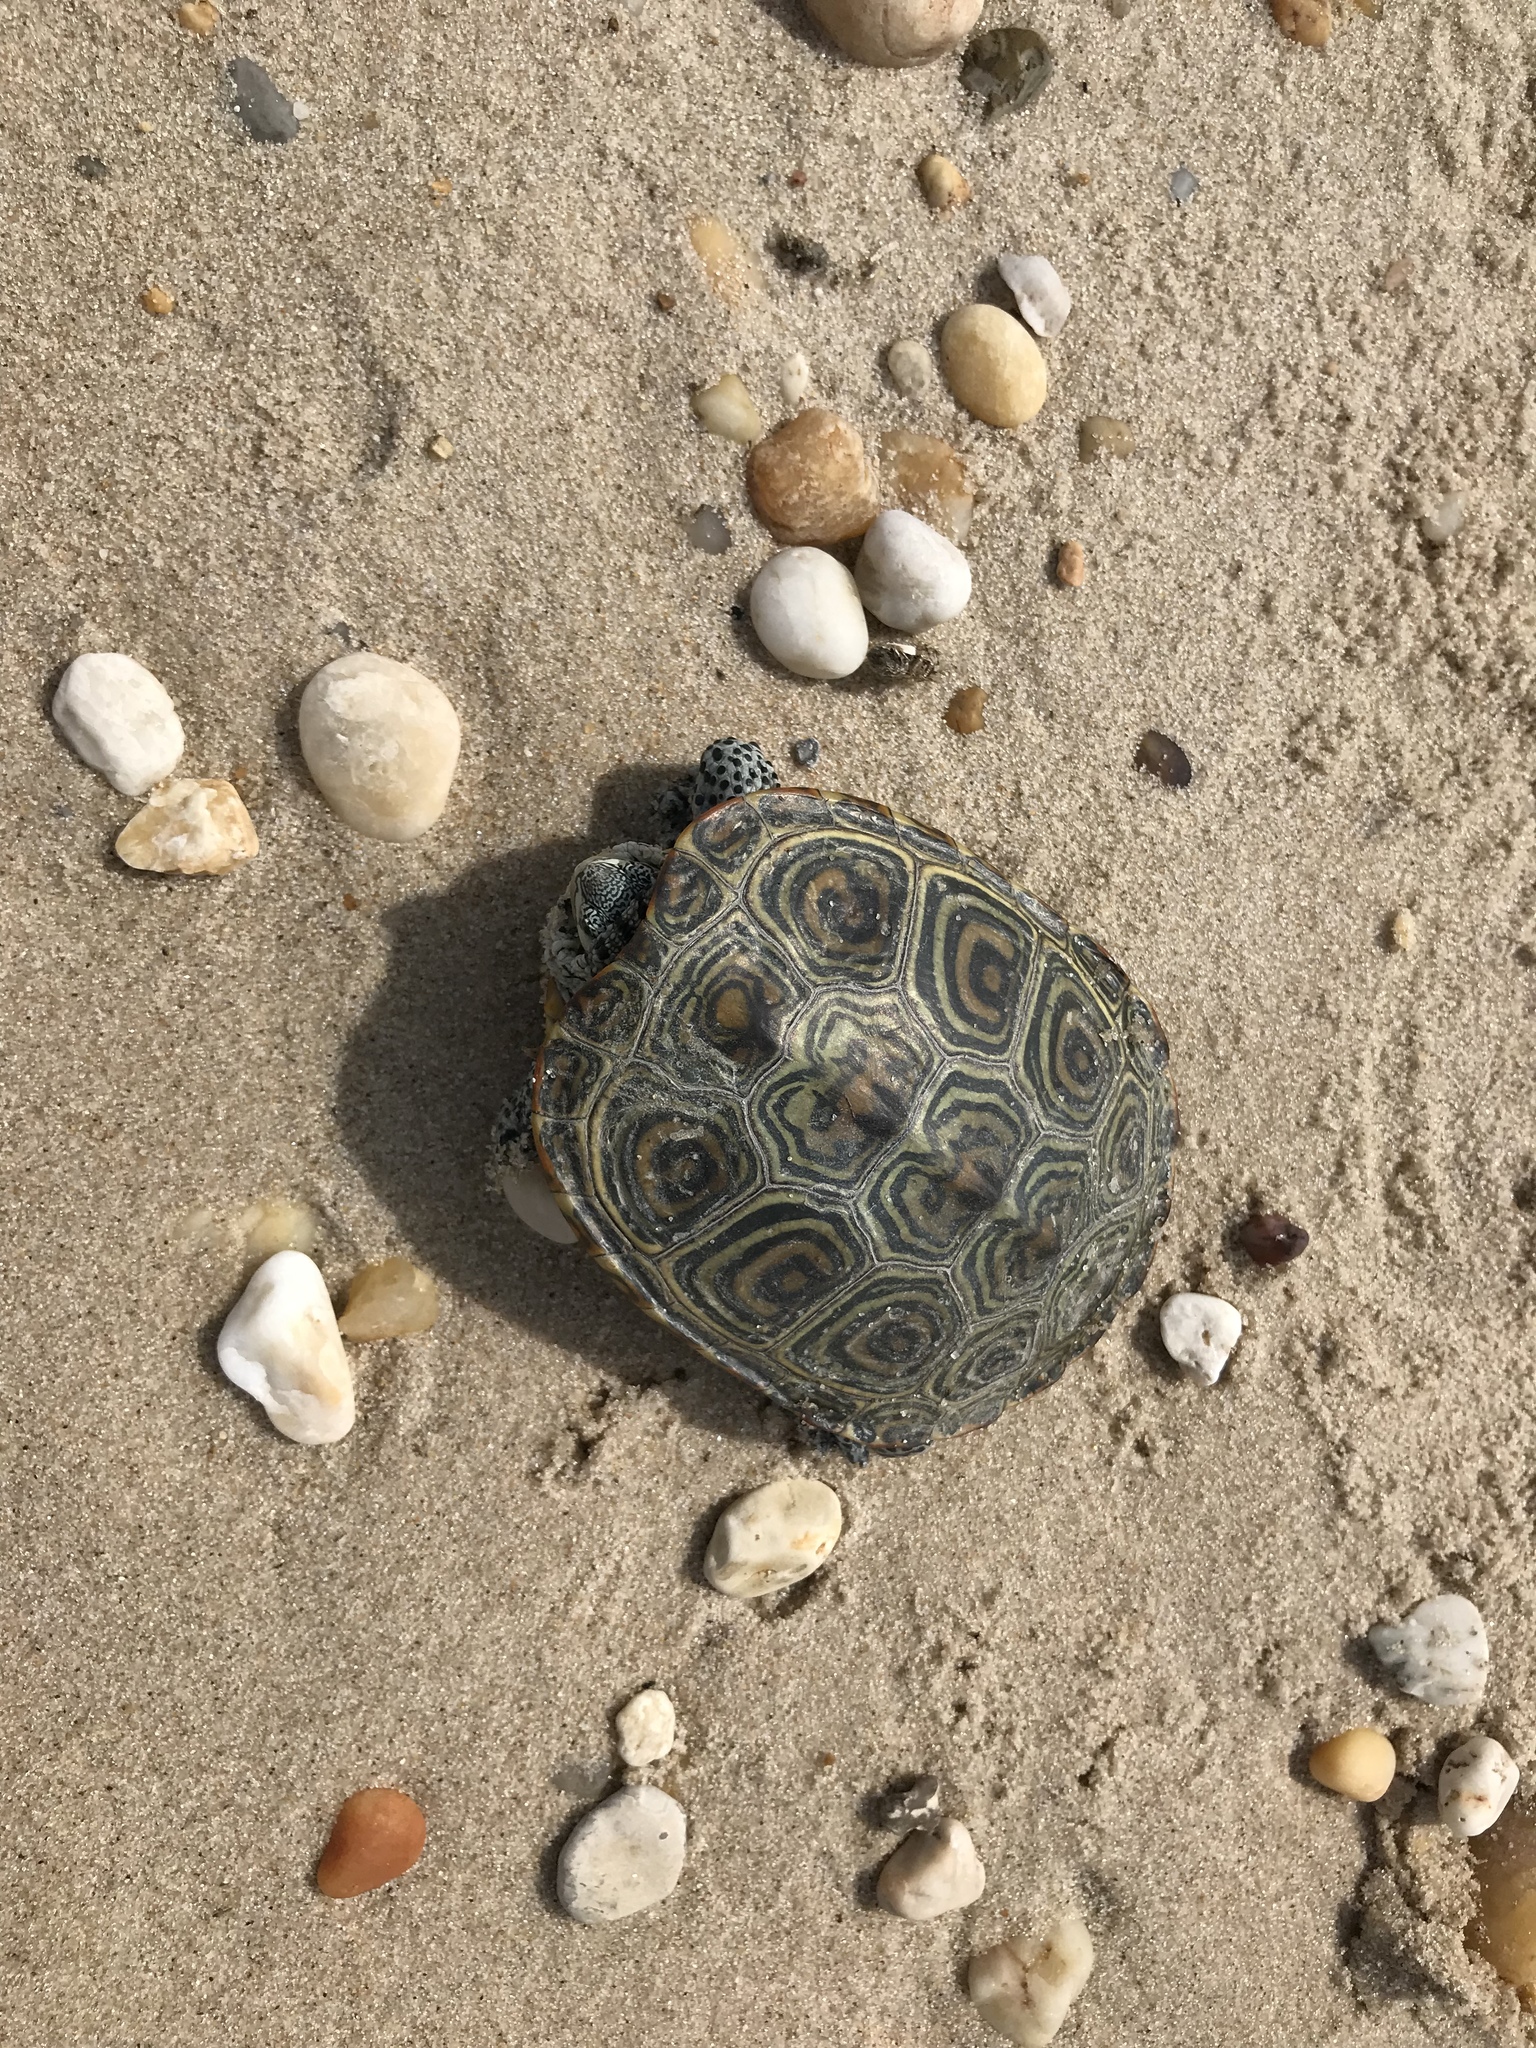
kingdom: Animalia
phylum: Chordata
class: Testudines
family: Emydidae
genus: Malaclemys
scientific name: Malaclemys terrapin
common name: Diamondback terrapin
